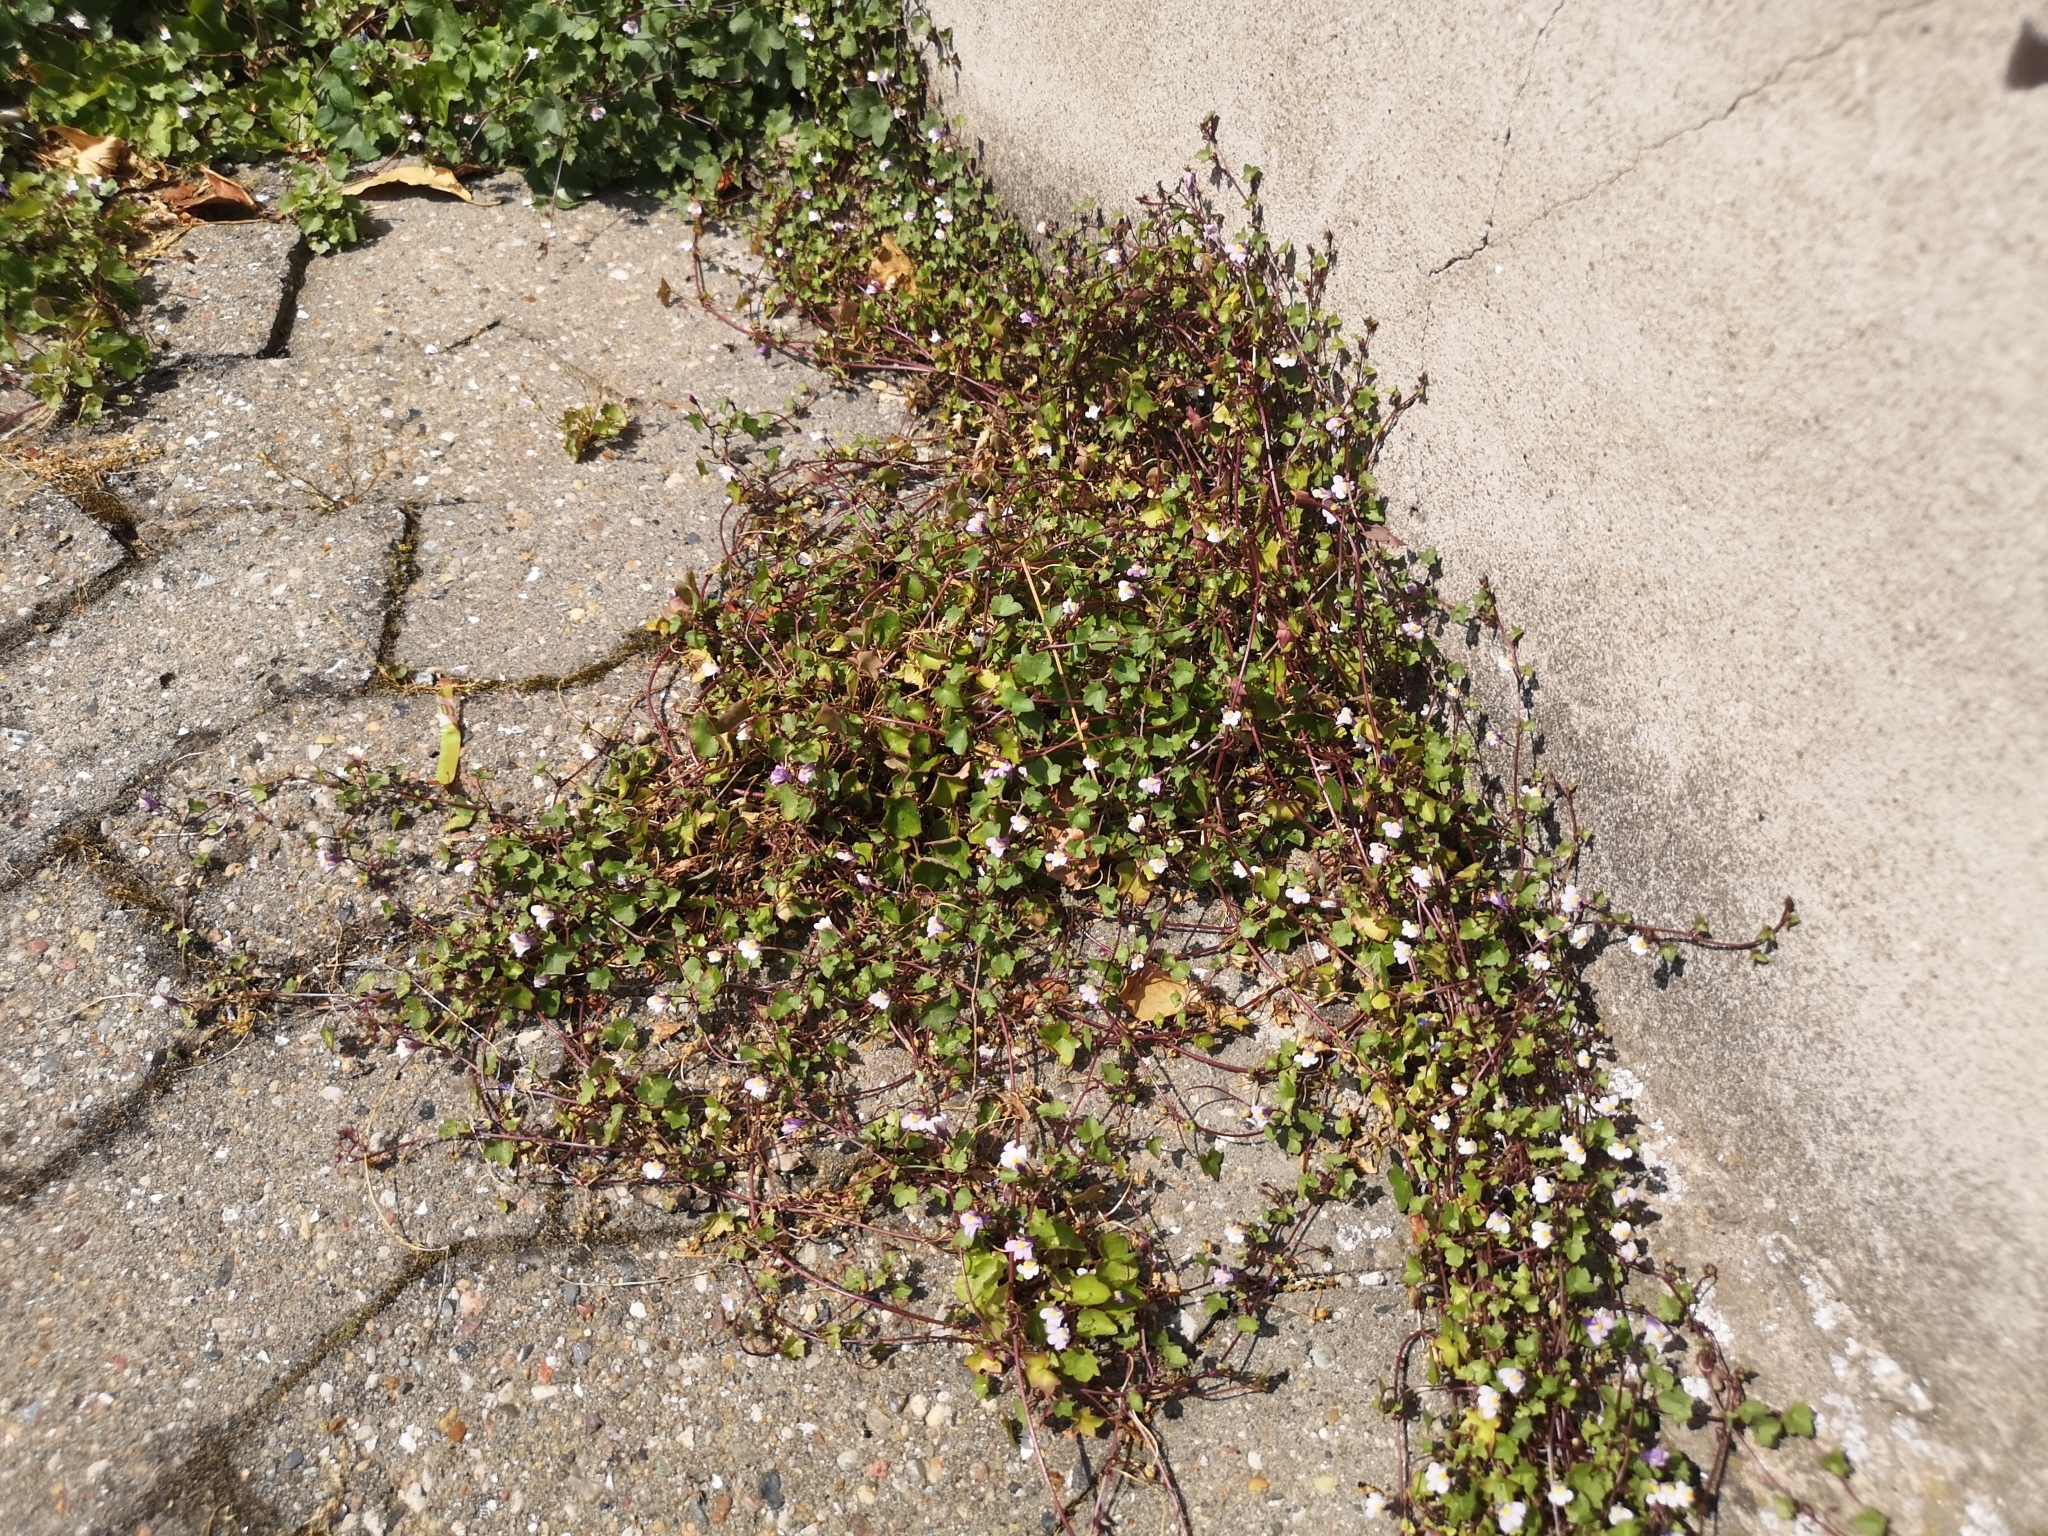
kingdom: Plantae
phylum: Tracheophyta
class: Magnoliopsida
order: Lamiales
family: Plantaginaceae
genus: Cymbalaria
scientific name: Cymbalaria muralis
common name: Ivy-leaved toadflax
